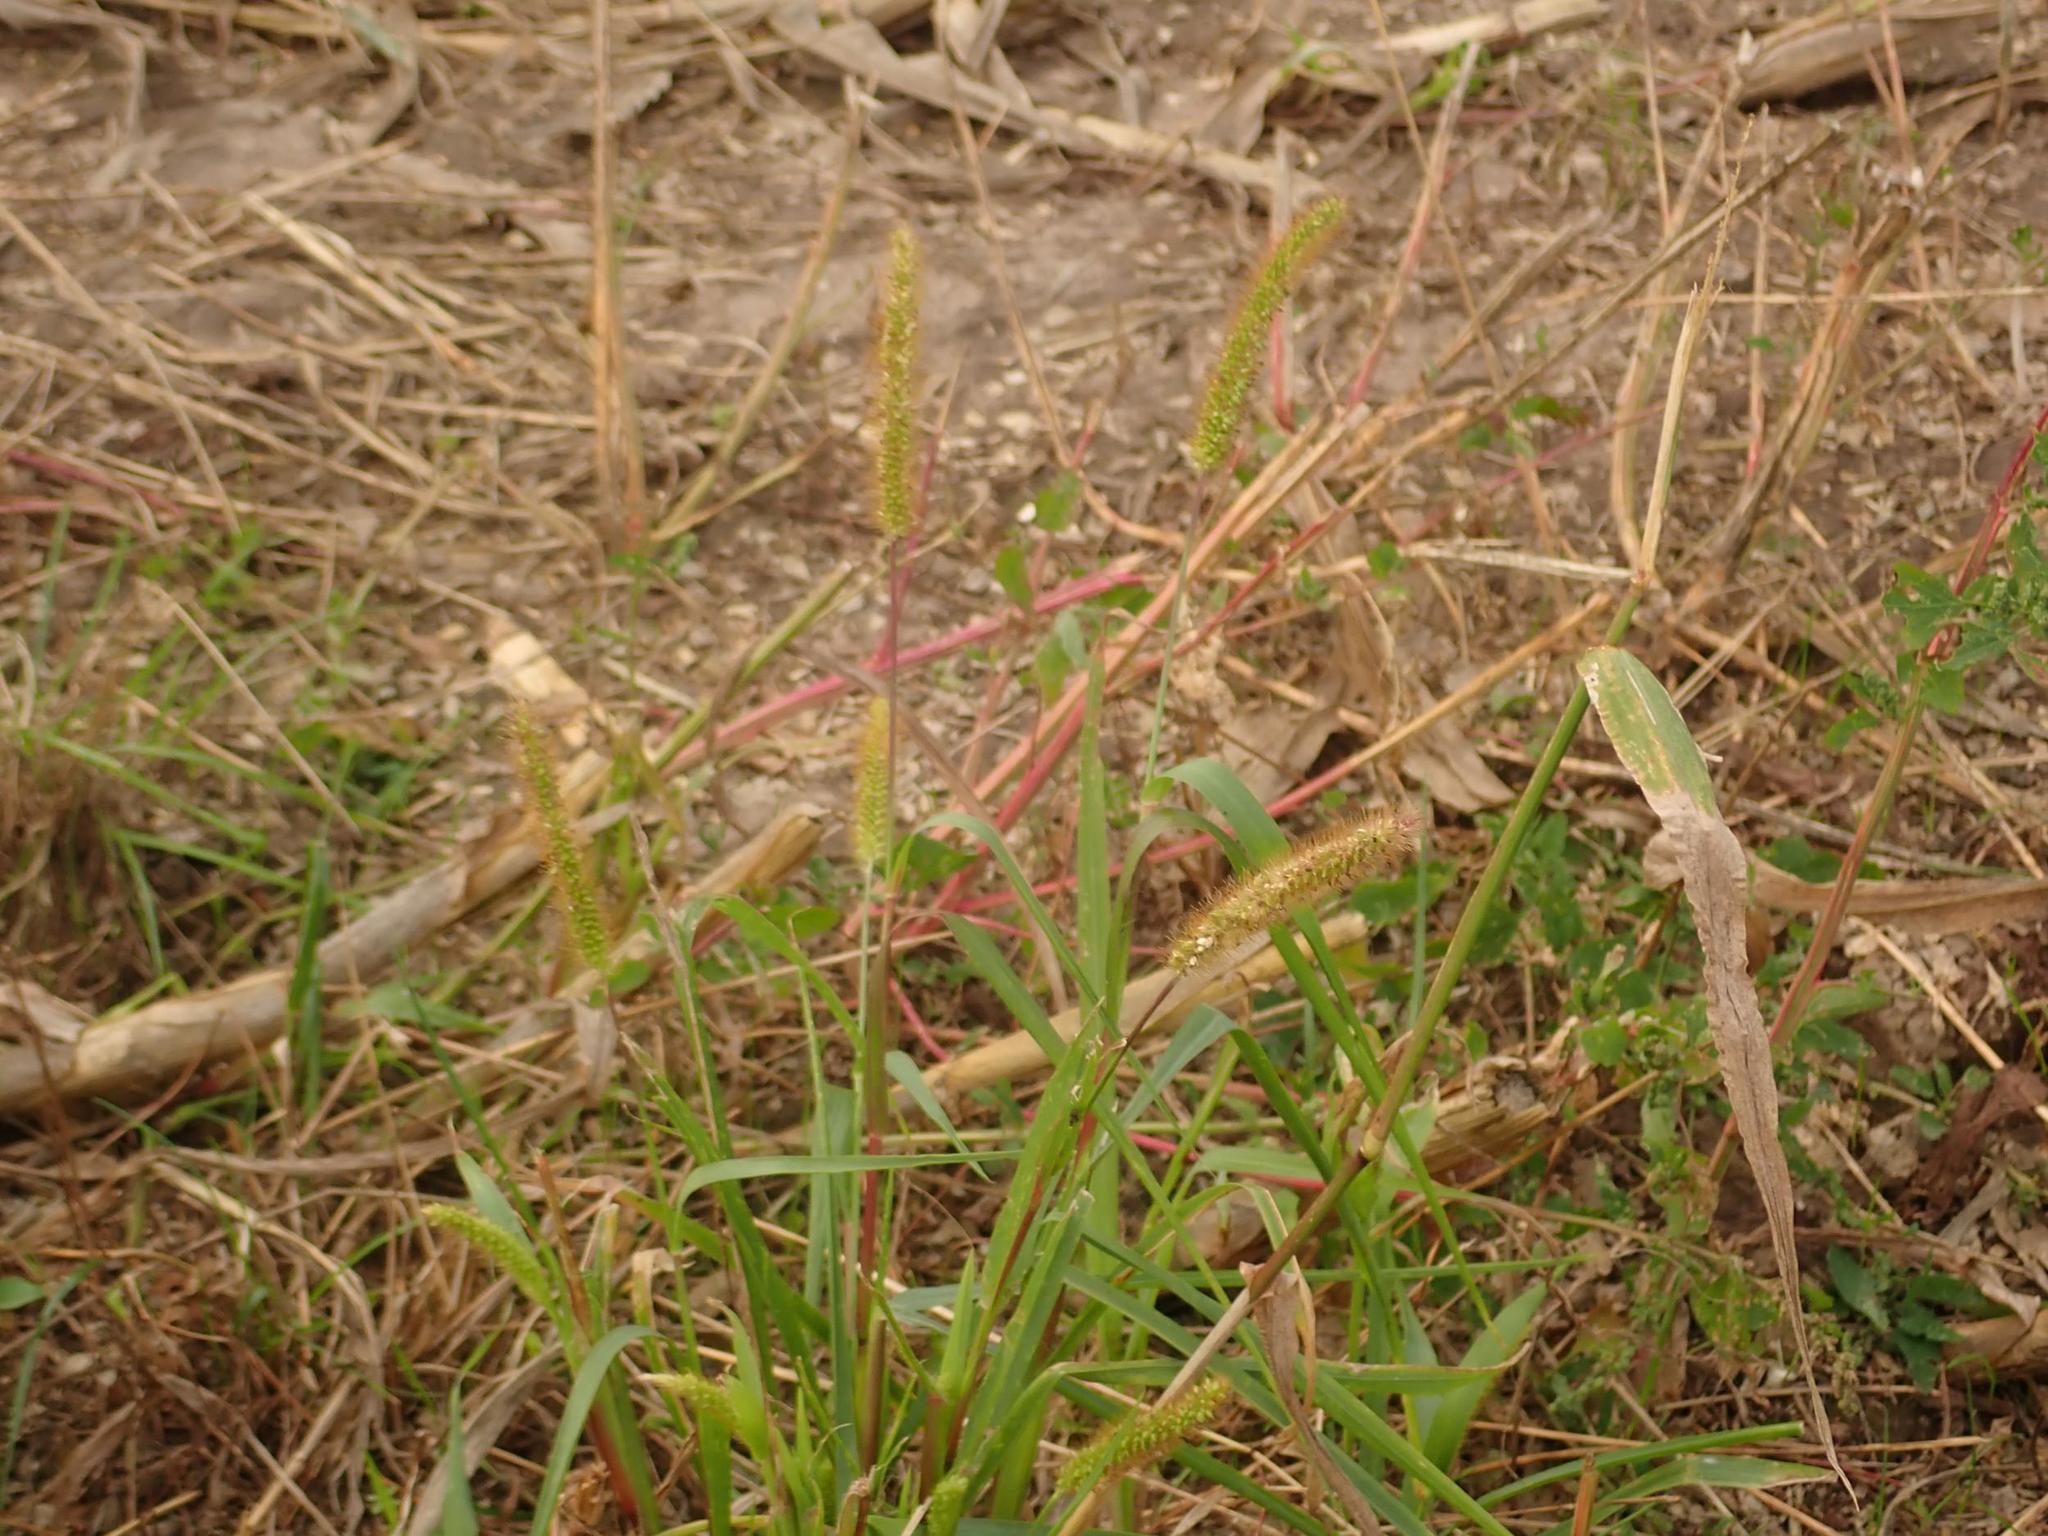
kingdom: Plantae
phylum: Tracheophyta
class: Liliopsida
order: Poales
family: Poaceae
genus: Setaria
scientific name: Setaria pumila
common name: Yellow bristle-grass
